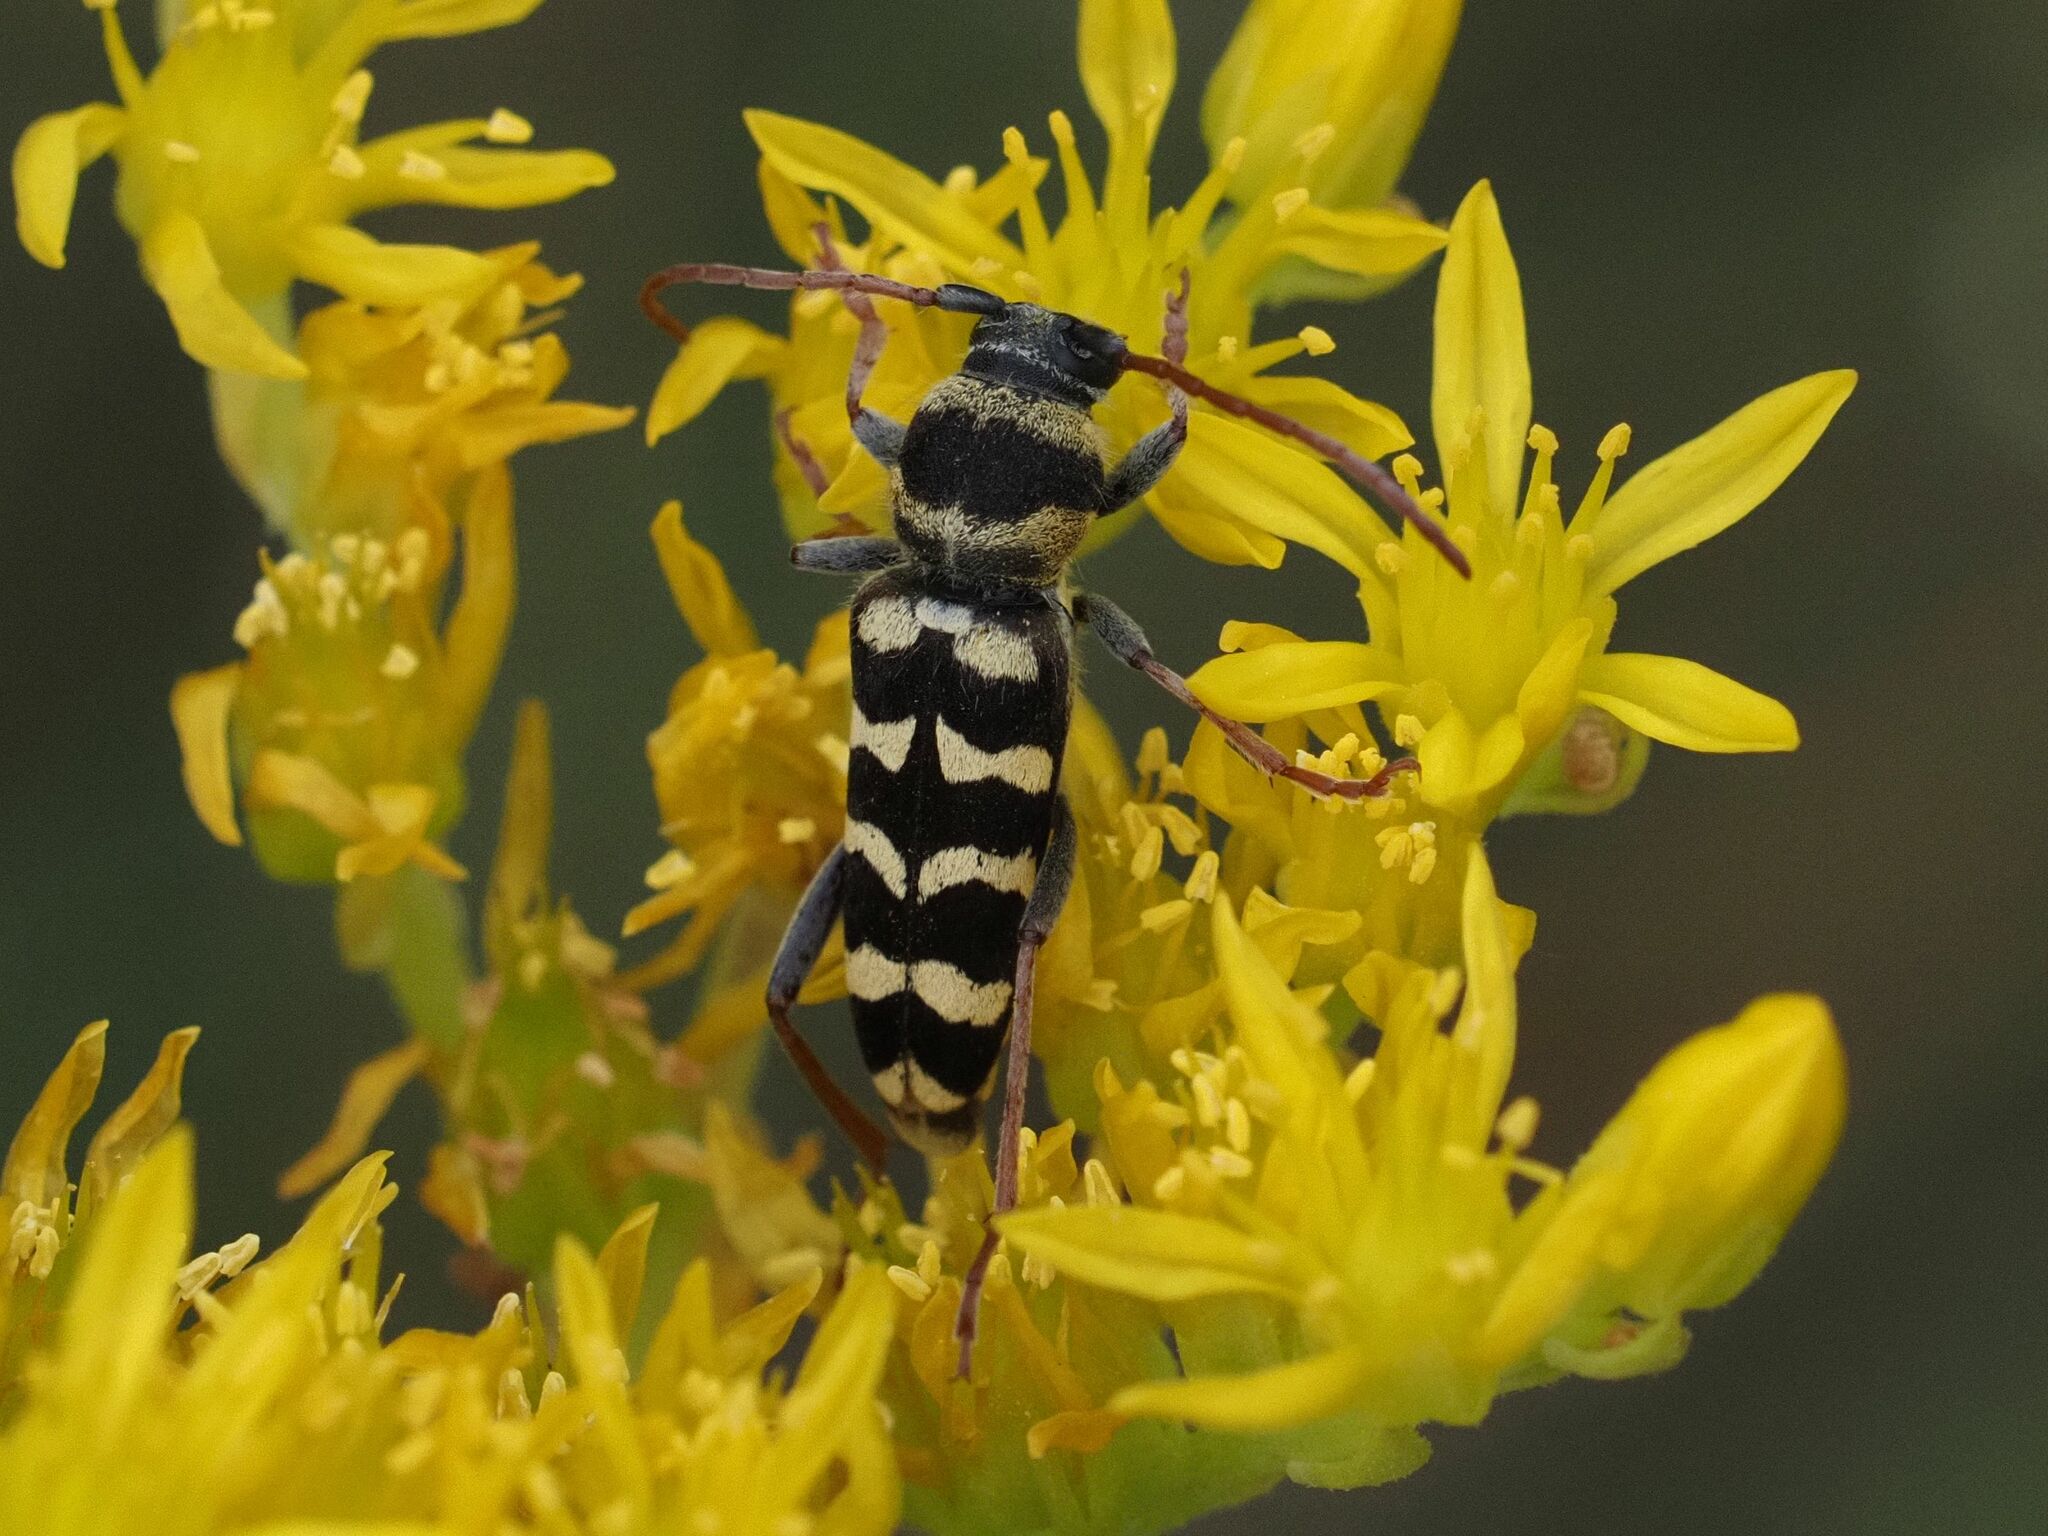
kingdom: Animalia
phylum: Arthropoda
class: Insecta
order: Coleoptera
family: Cerambycidae
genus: Plagionotus
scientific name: Plagionotus floralis
